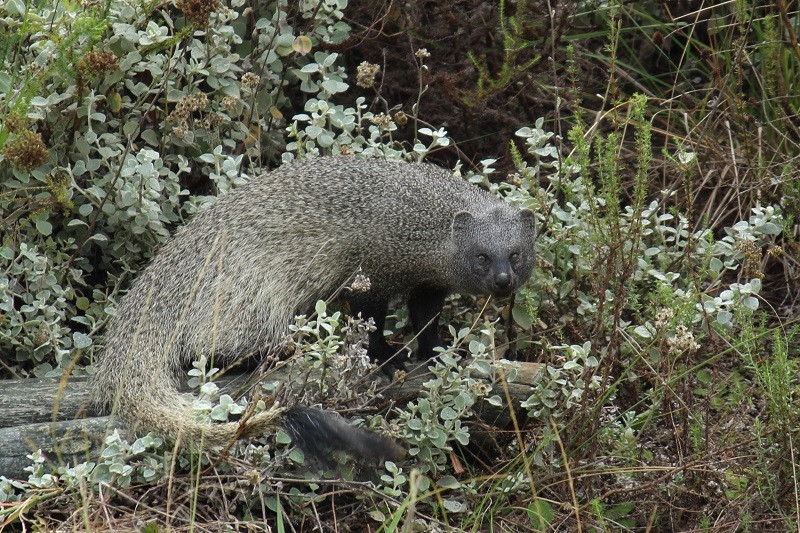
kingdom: Animalia
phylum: Chordata
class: Mammalia
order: Carnivora
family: Herpestidae
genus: Herpestes
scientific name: Herpestes ichneumon
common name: Egyptian mongoose
